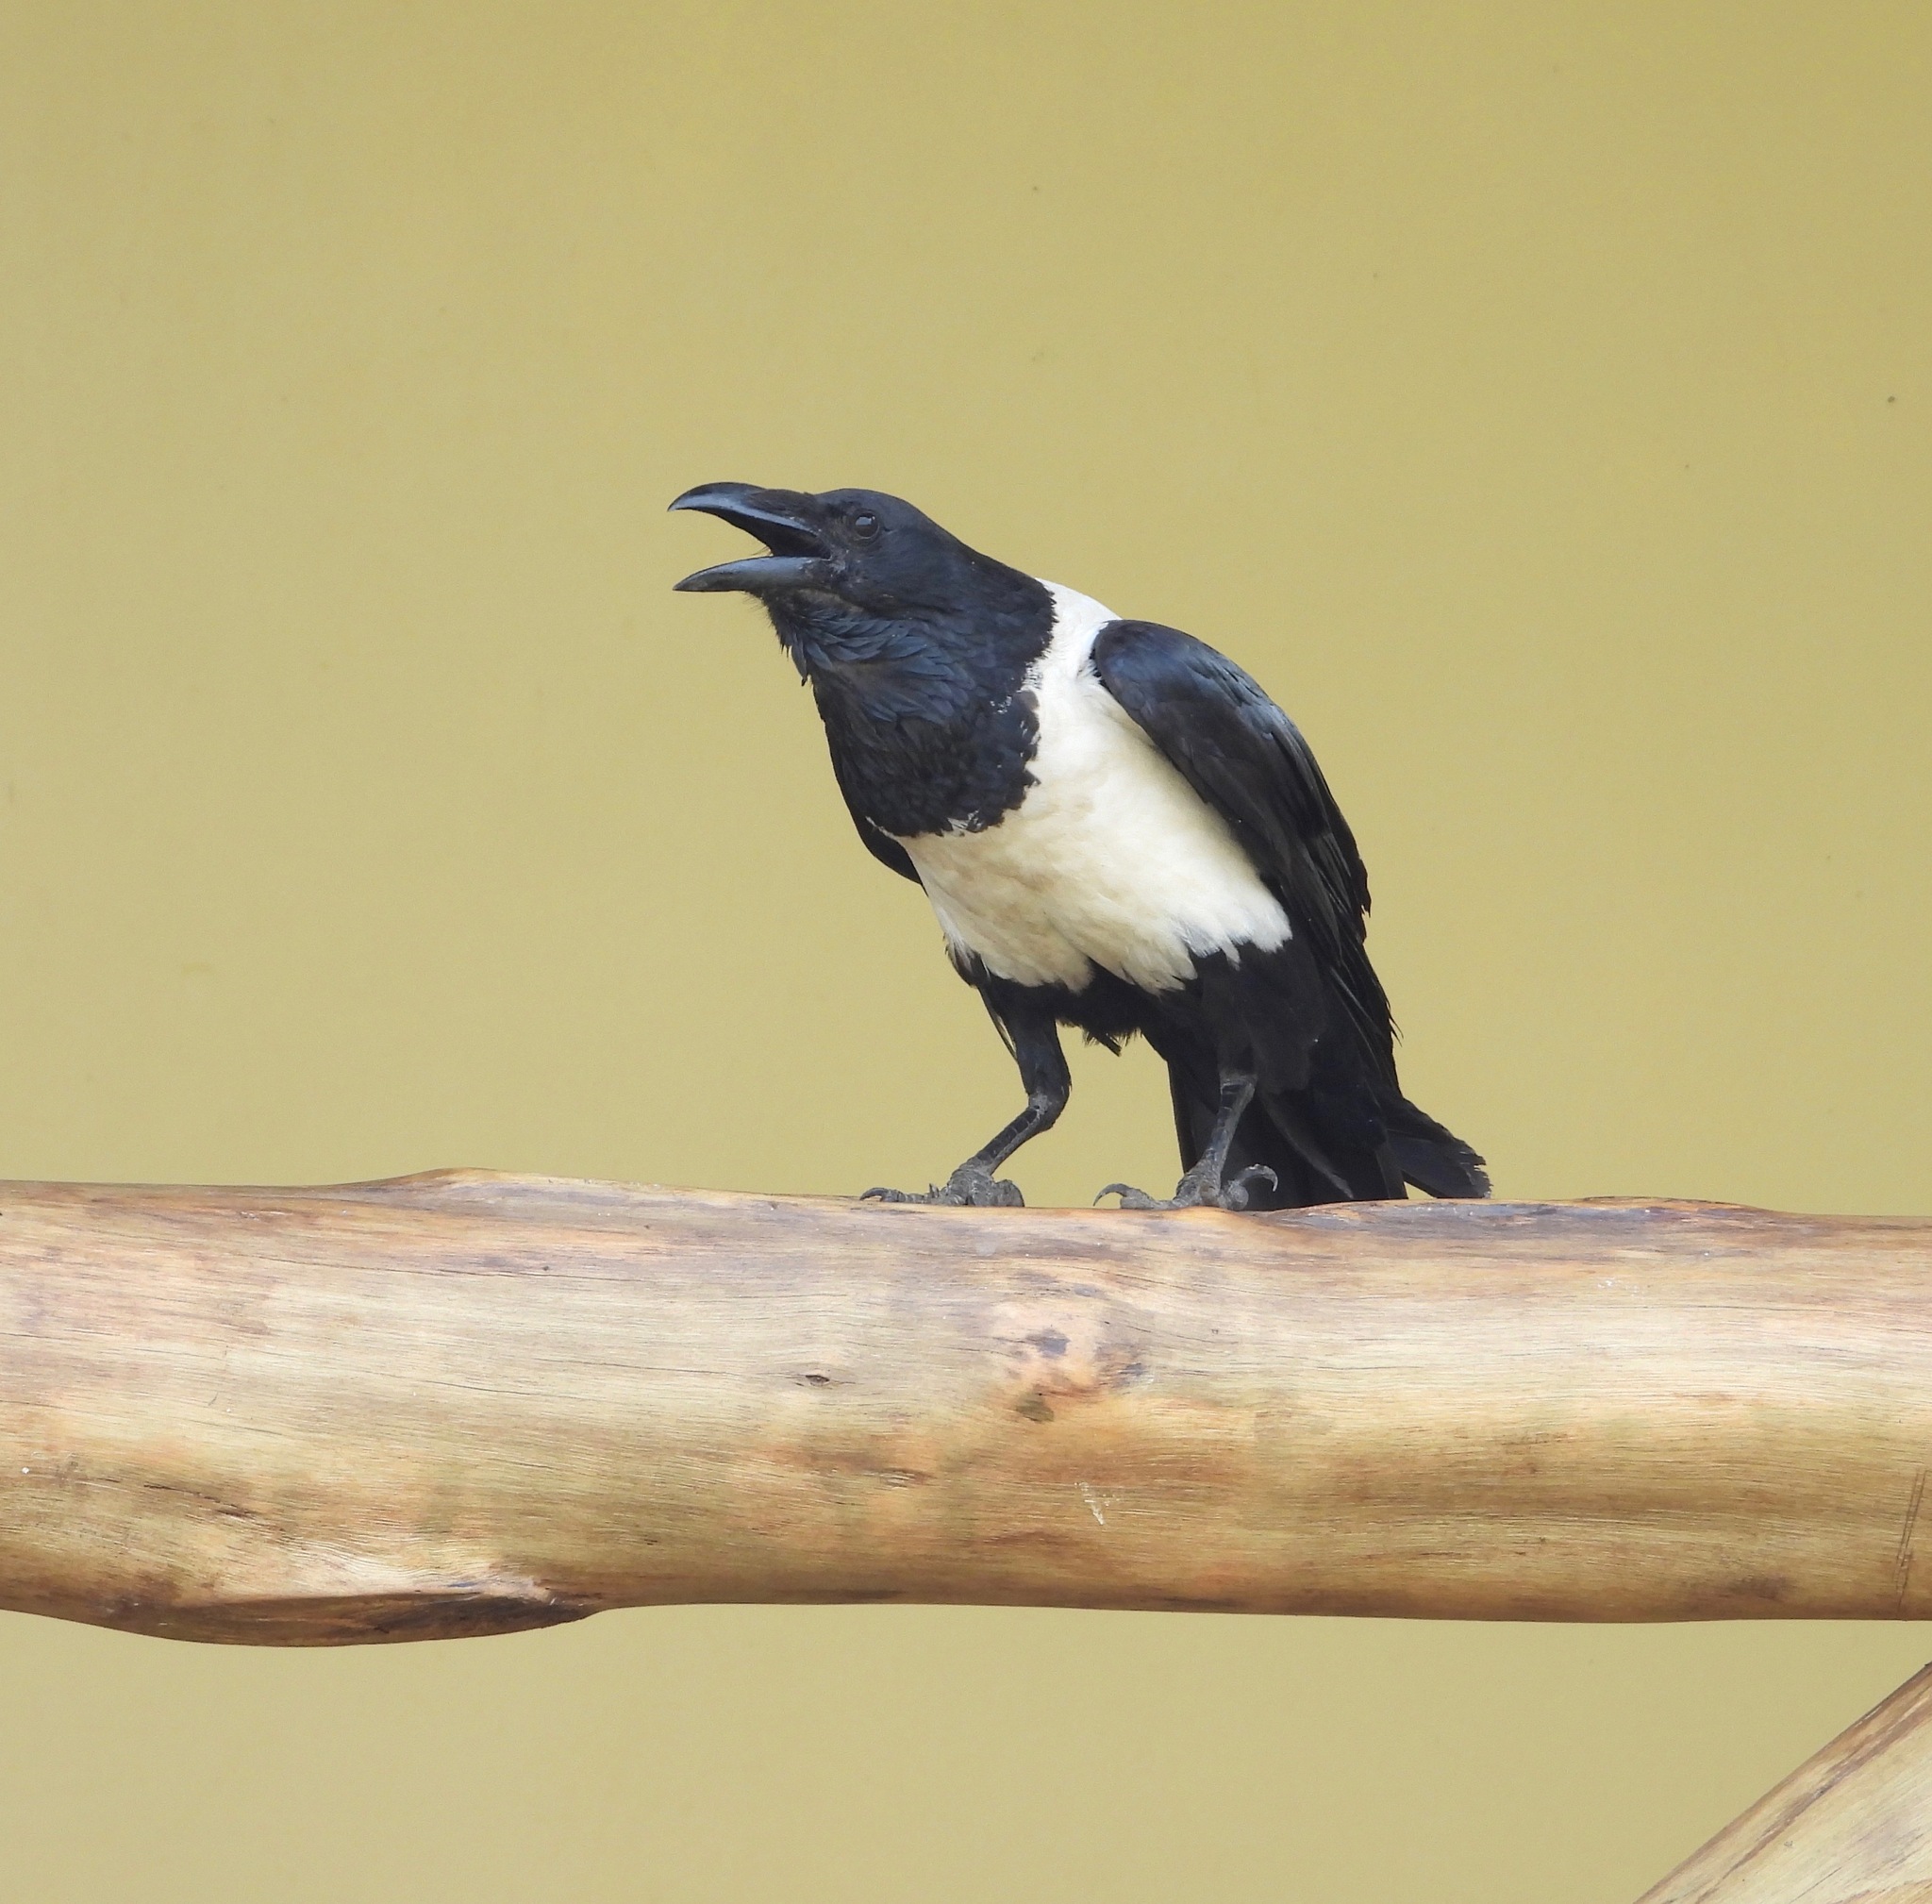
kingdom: Animalia
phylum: Chordata
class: Aves
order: Passeriformes
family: Corvidae
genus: Corvus
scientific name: Corvus albus
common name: Pied crow
